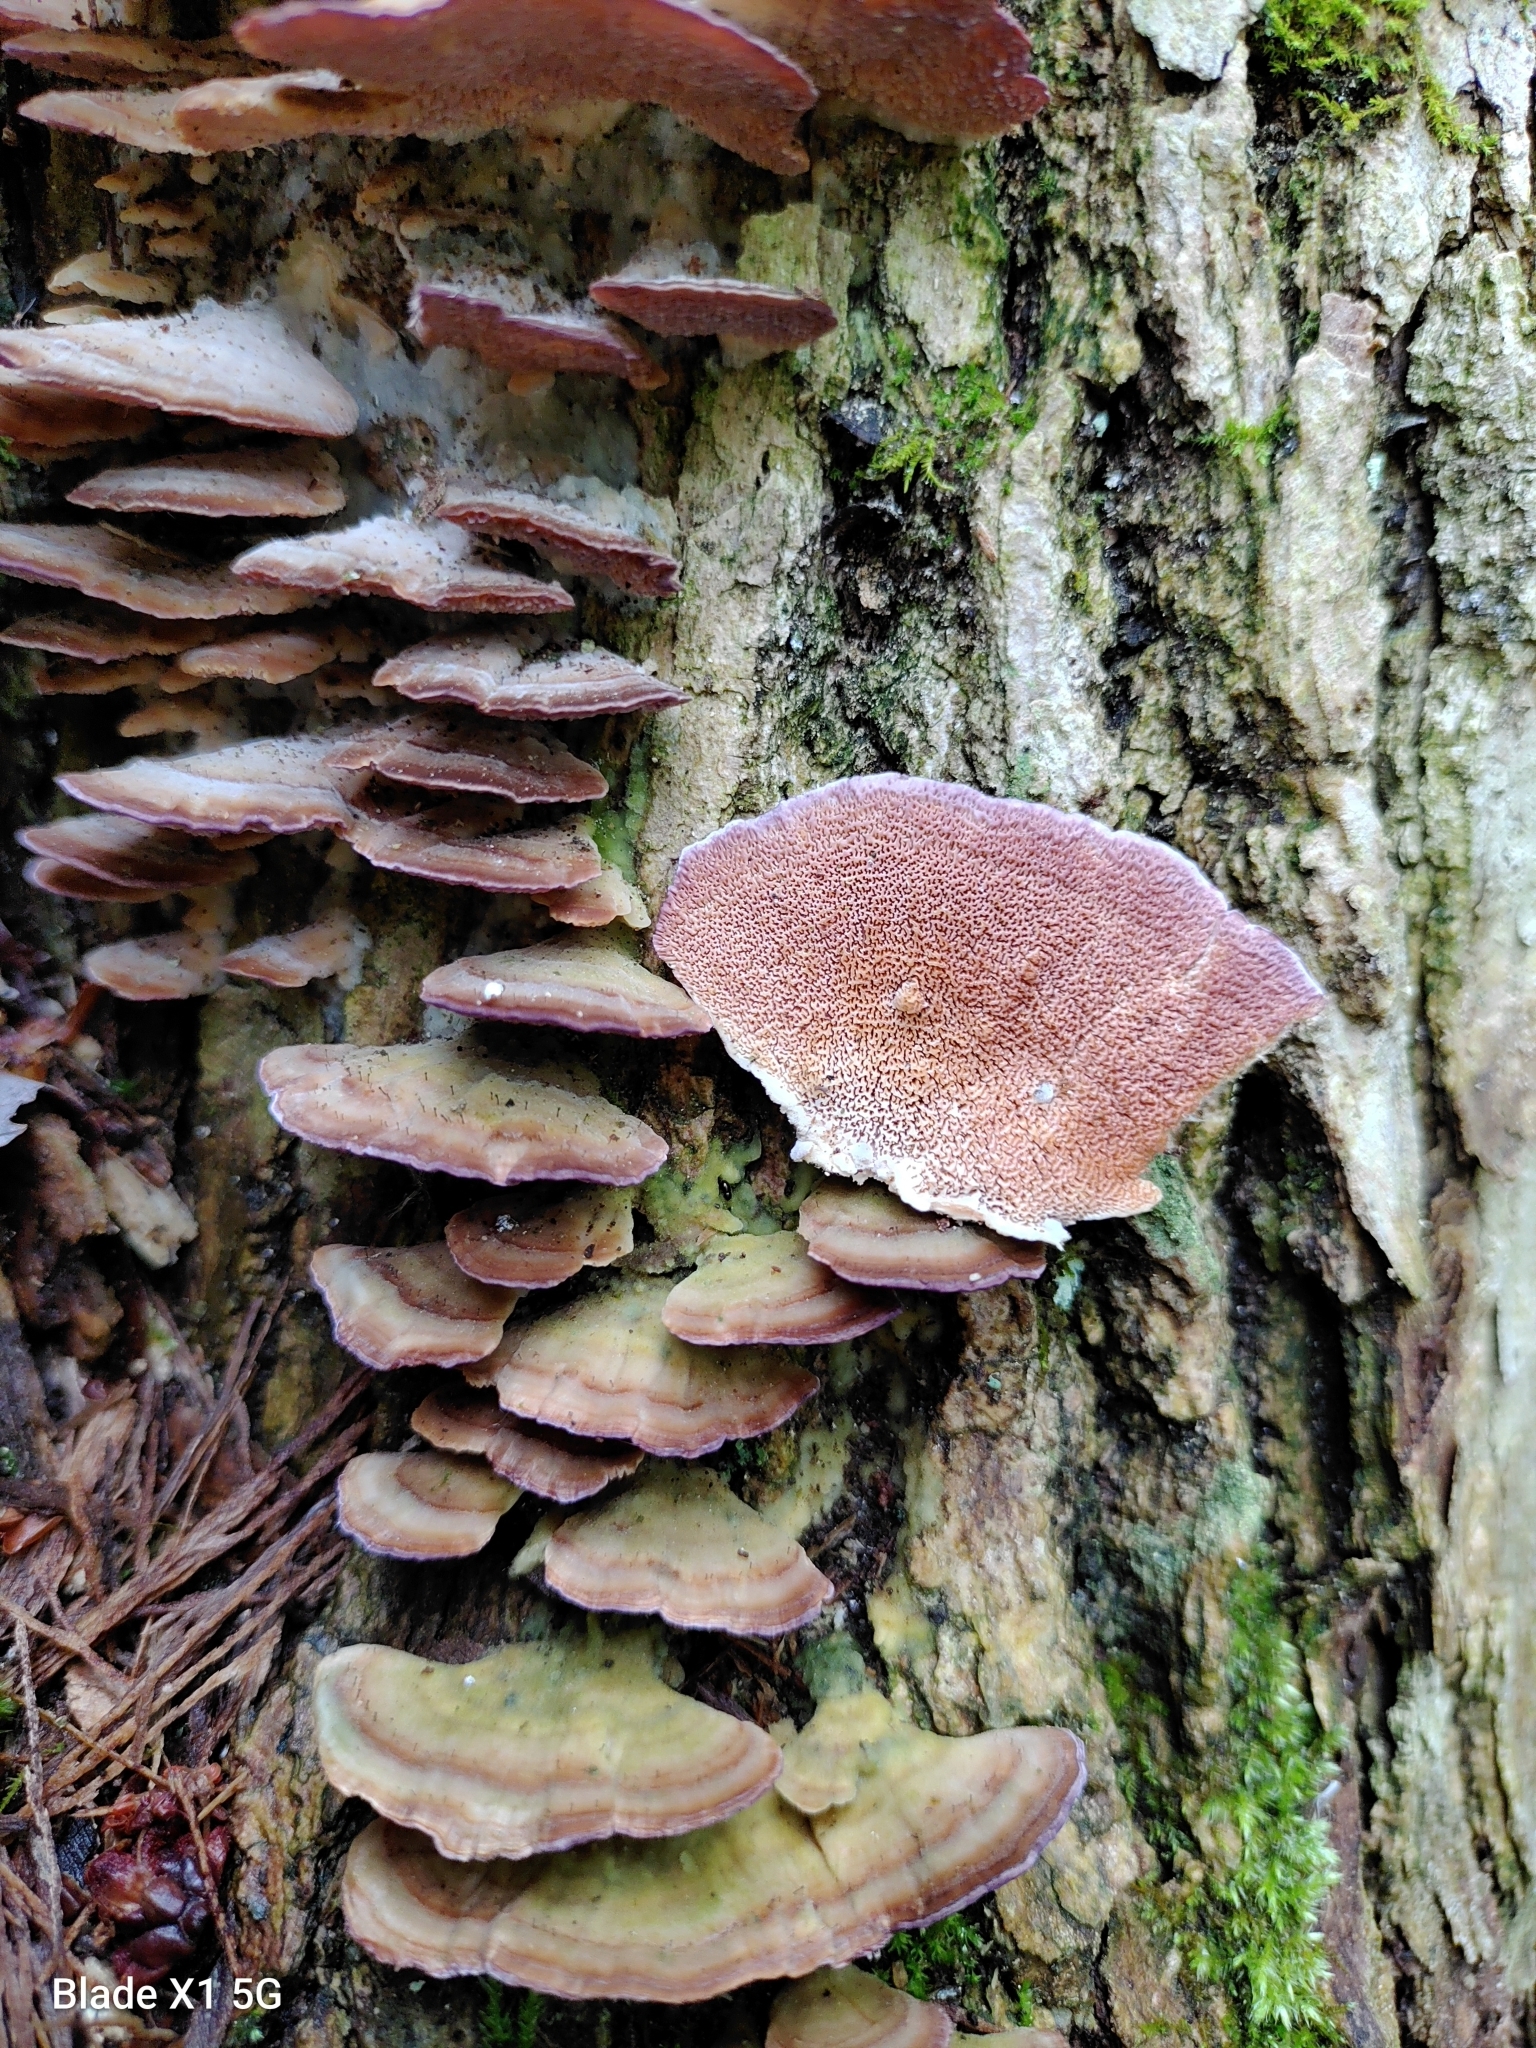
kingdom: Fungi
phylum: Basidiomycota
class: Agaricomycetes
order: Hymenochaetales
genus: Trichaptum
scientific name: Trichaptum biforme
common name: Violet-toothed polypore
